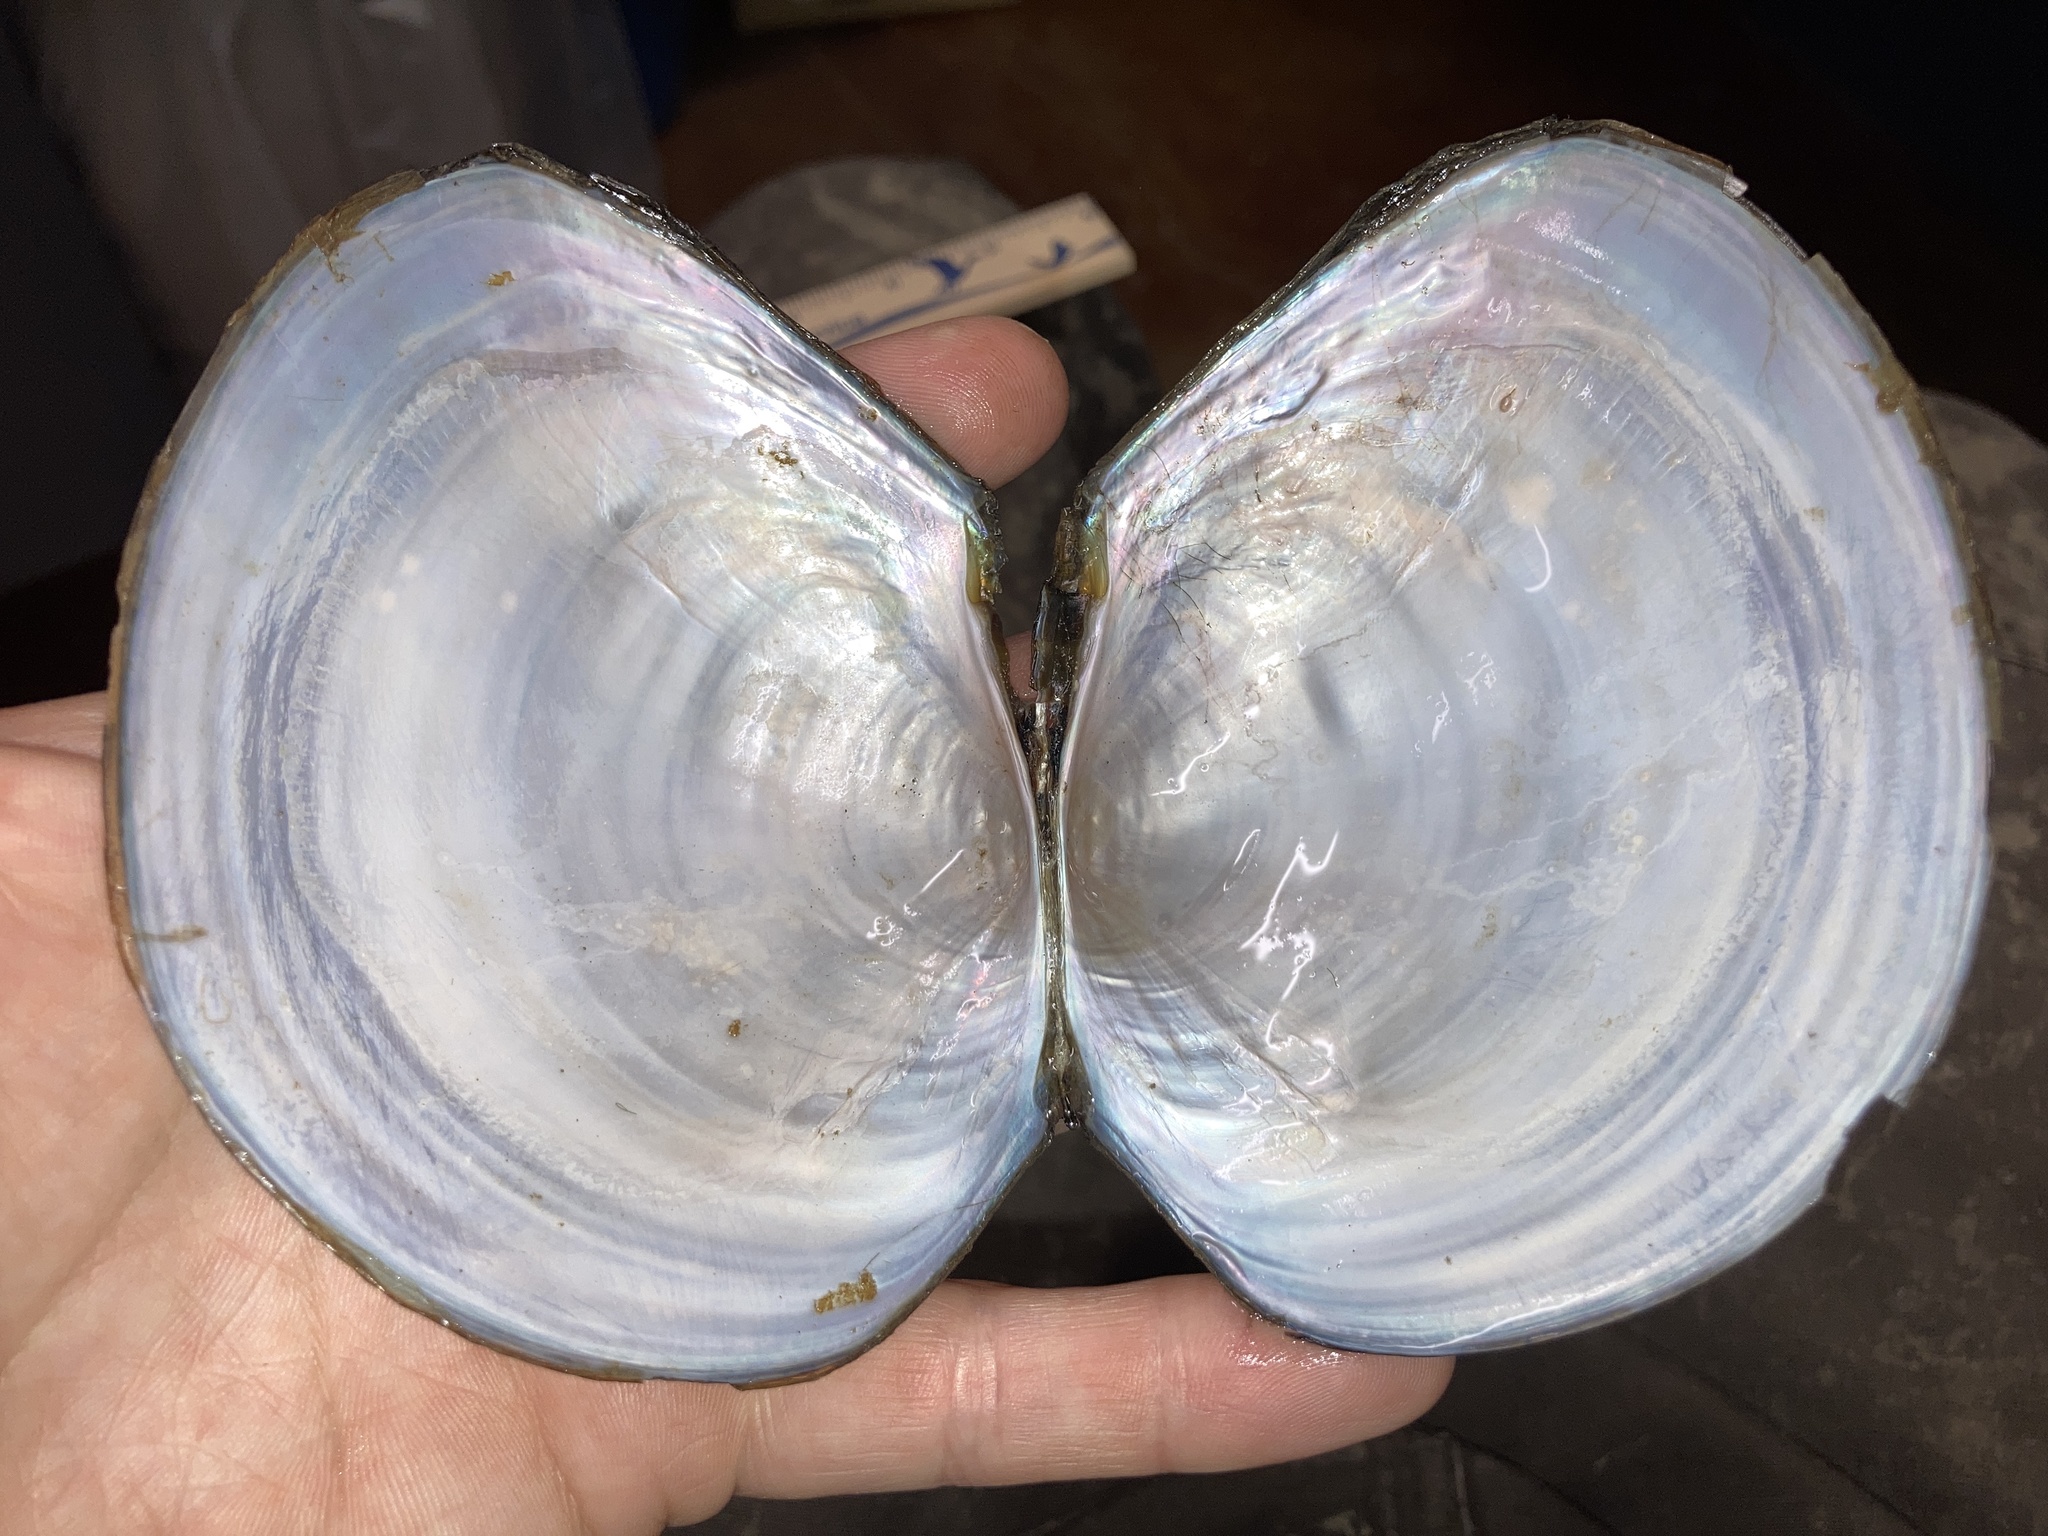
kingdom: Animalia
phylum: Mollusca
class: Bivalvia
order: Unionida
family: Unionidae
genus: Utterbackiana
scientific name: Utterbackiana suborbiculata
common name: Flat floater
